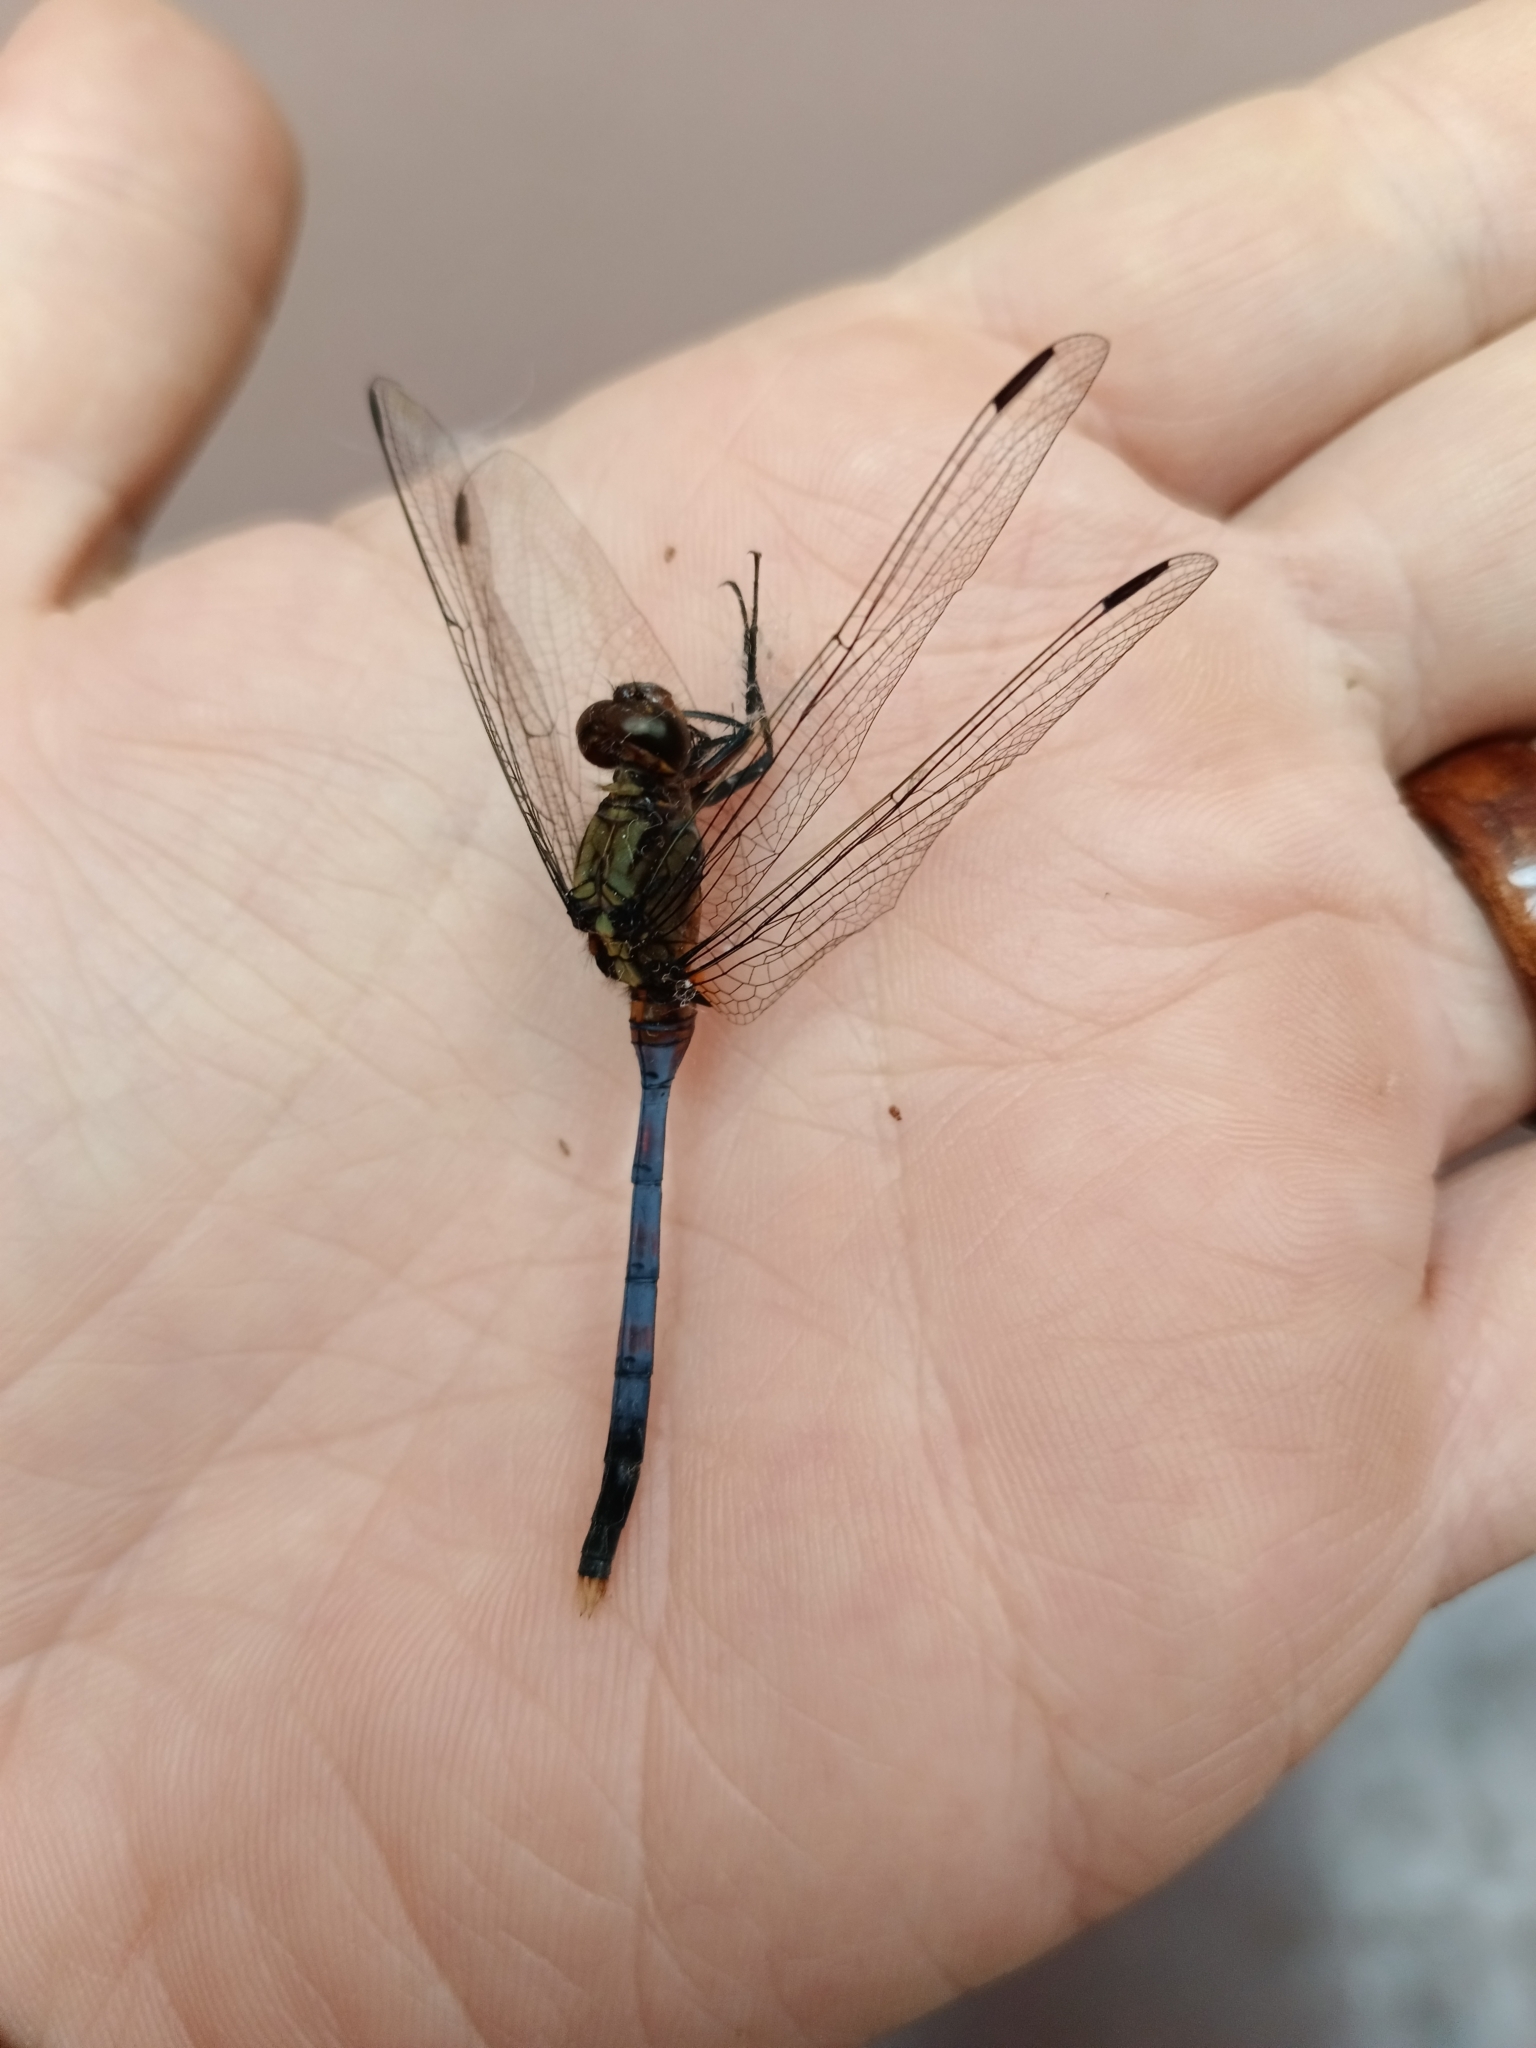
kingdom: Animalia
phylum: Arthropoda
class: Insecta
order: Odonata
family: Libellulidae
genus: Orthetrum
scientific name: Orthetrum julia
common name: Julia skimmer
